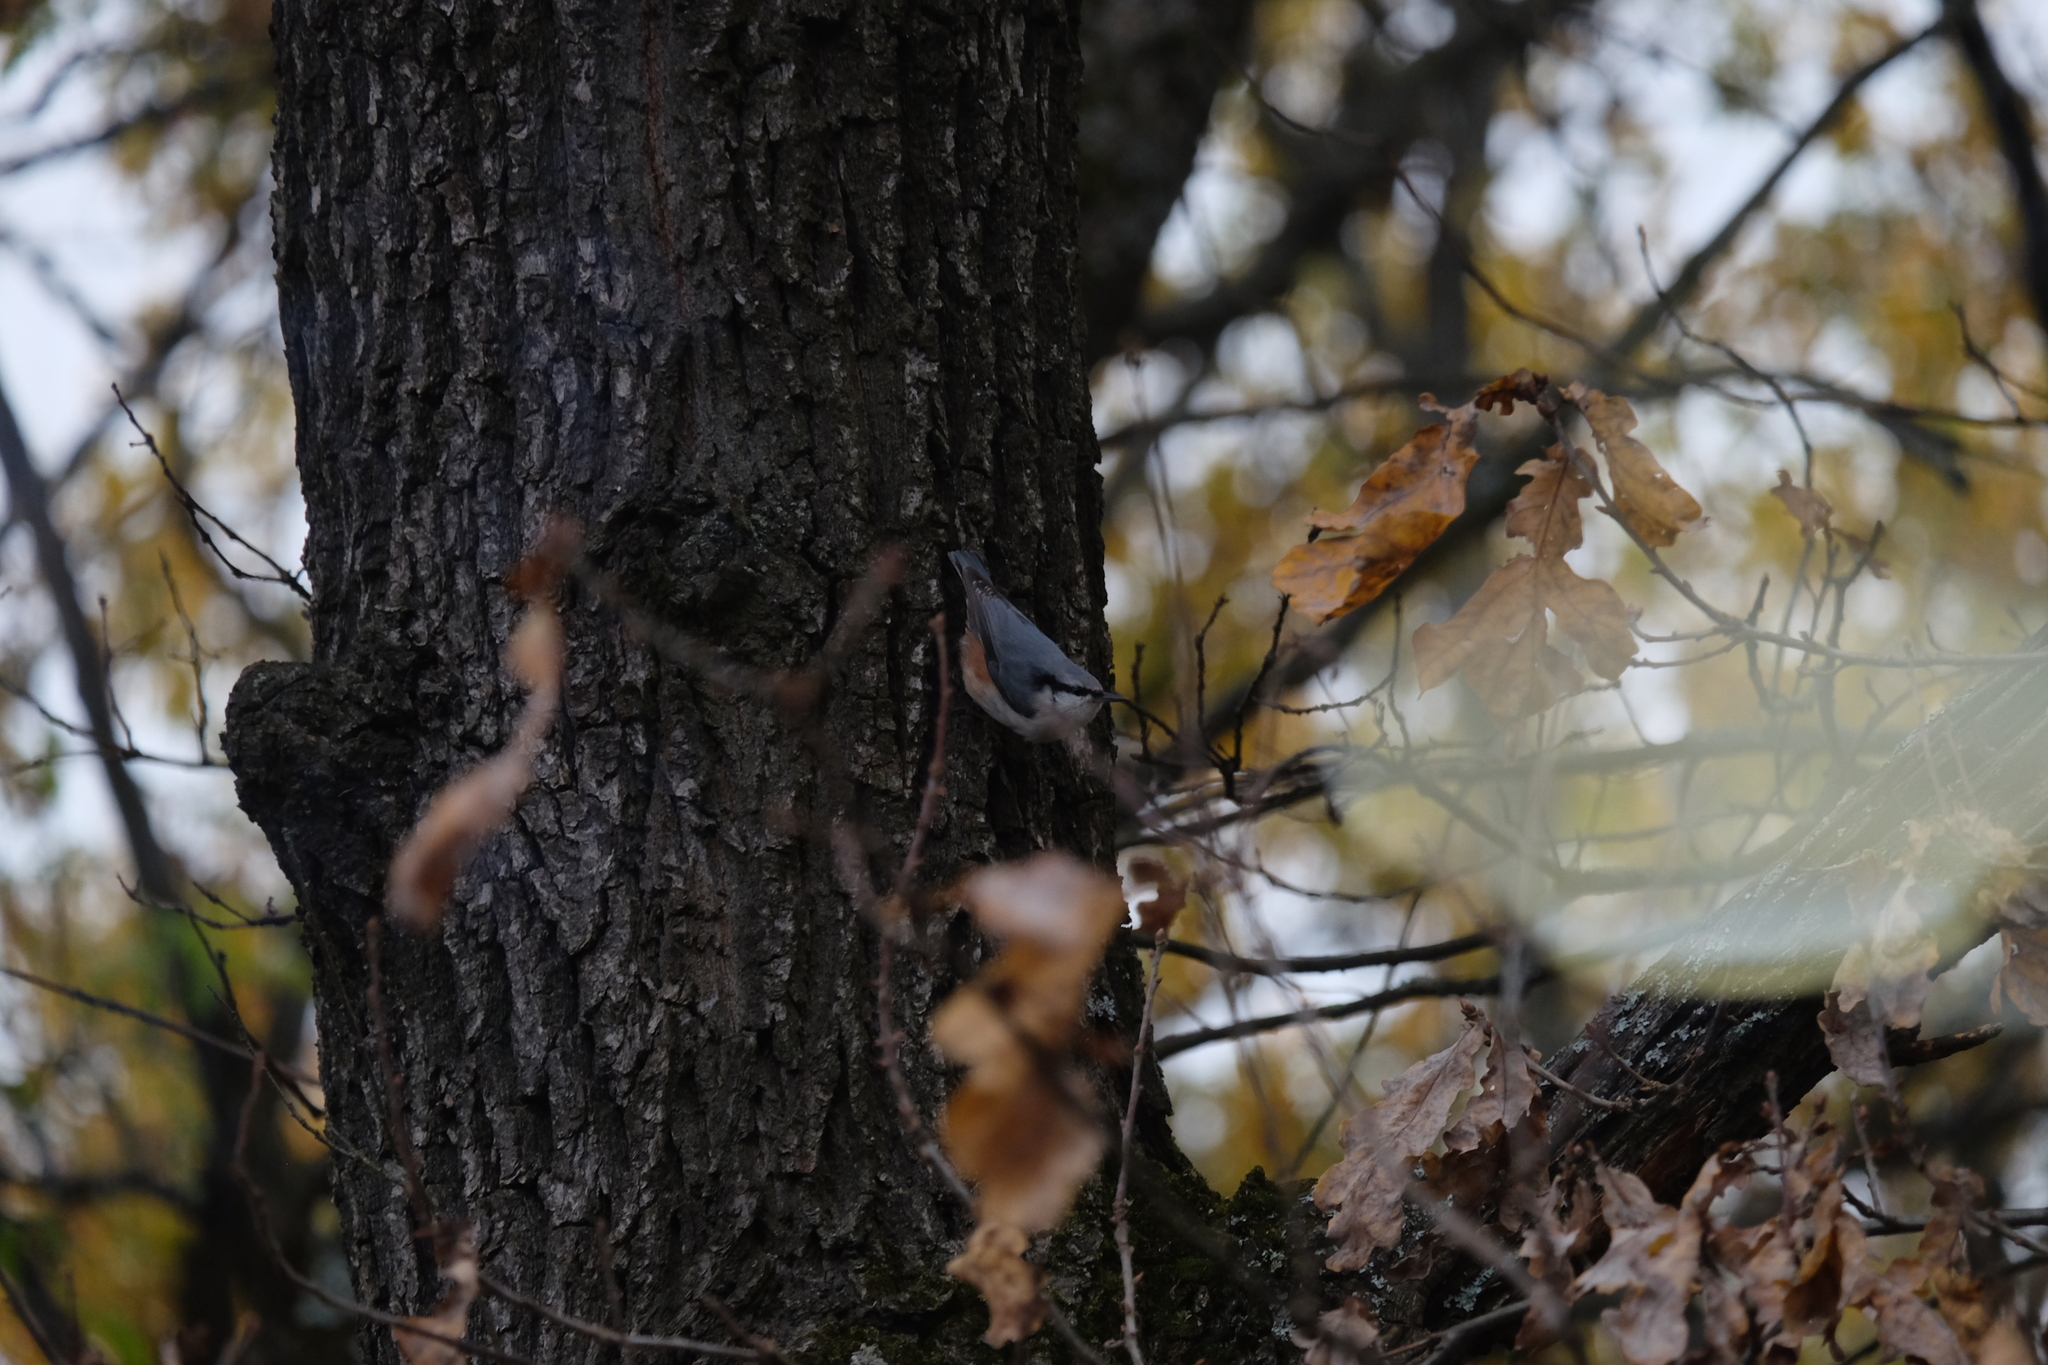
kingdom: Animalia
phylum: Chordata
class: Aves
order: Passeriformes
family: Sittidae
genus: Sitta
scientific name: Sitta europaea
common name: Eurasian nuthatch
